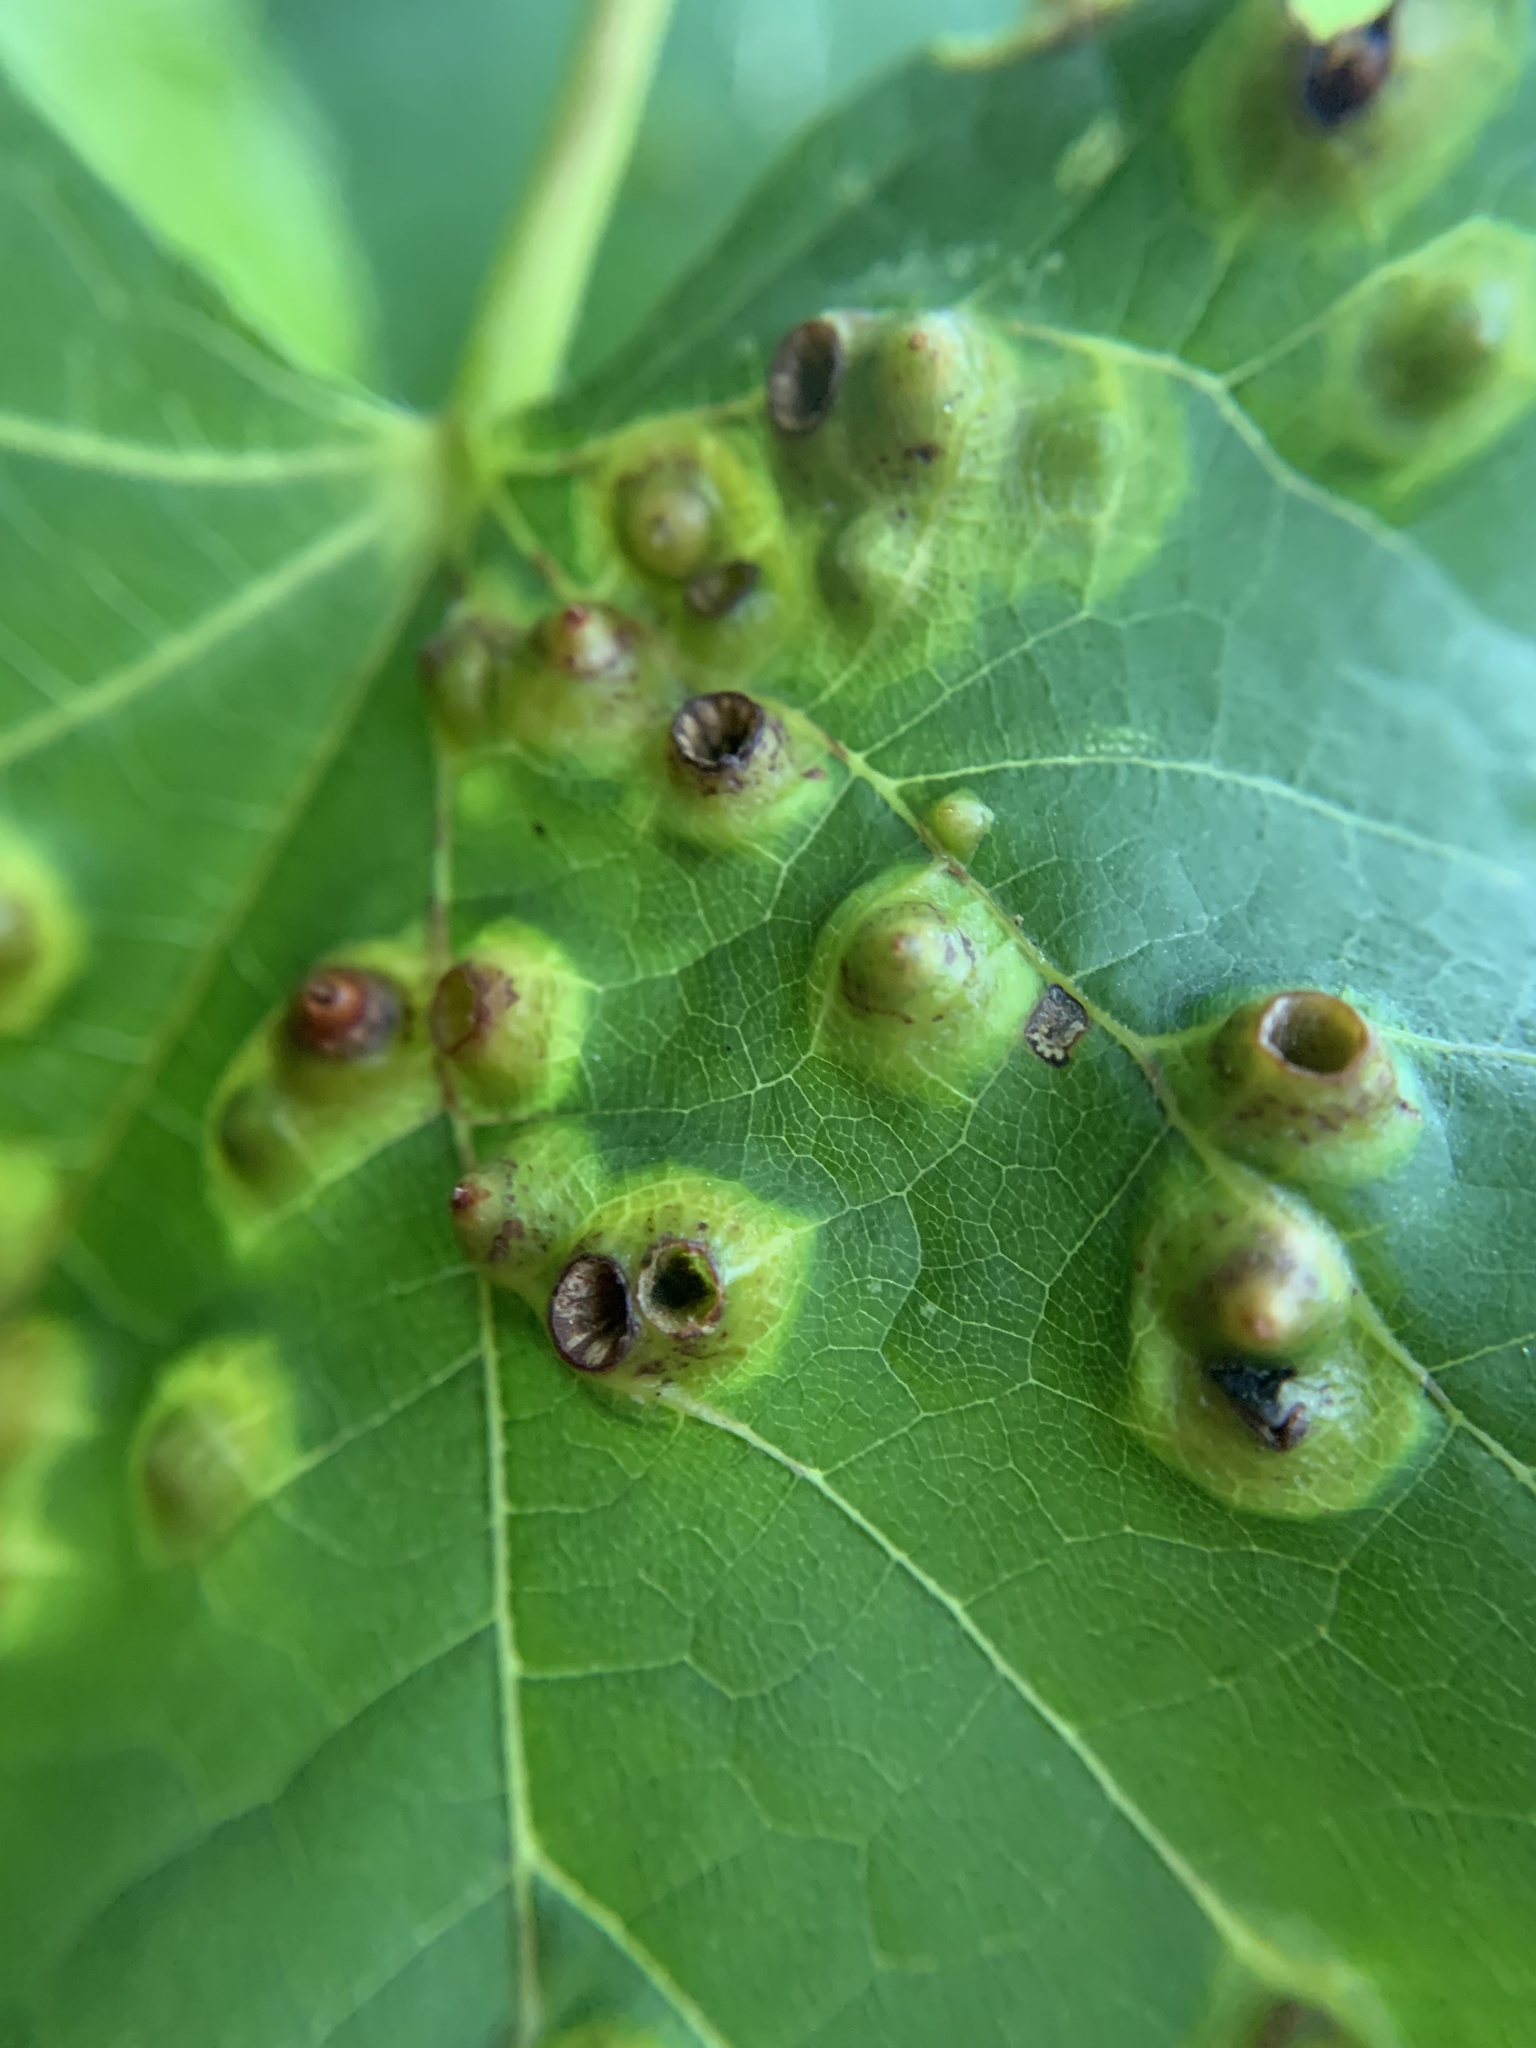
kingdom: Animalia
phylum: Arthropoda
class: Insecta
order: Diptera
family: Cecidomyiidae
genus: Didymomyia
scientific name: Didymomyia tiliacea
